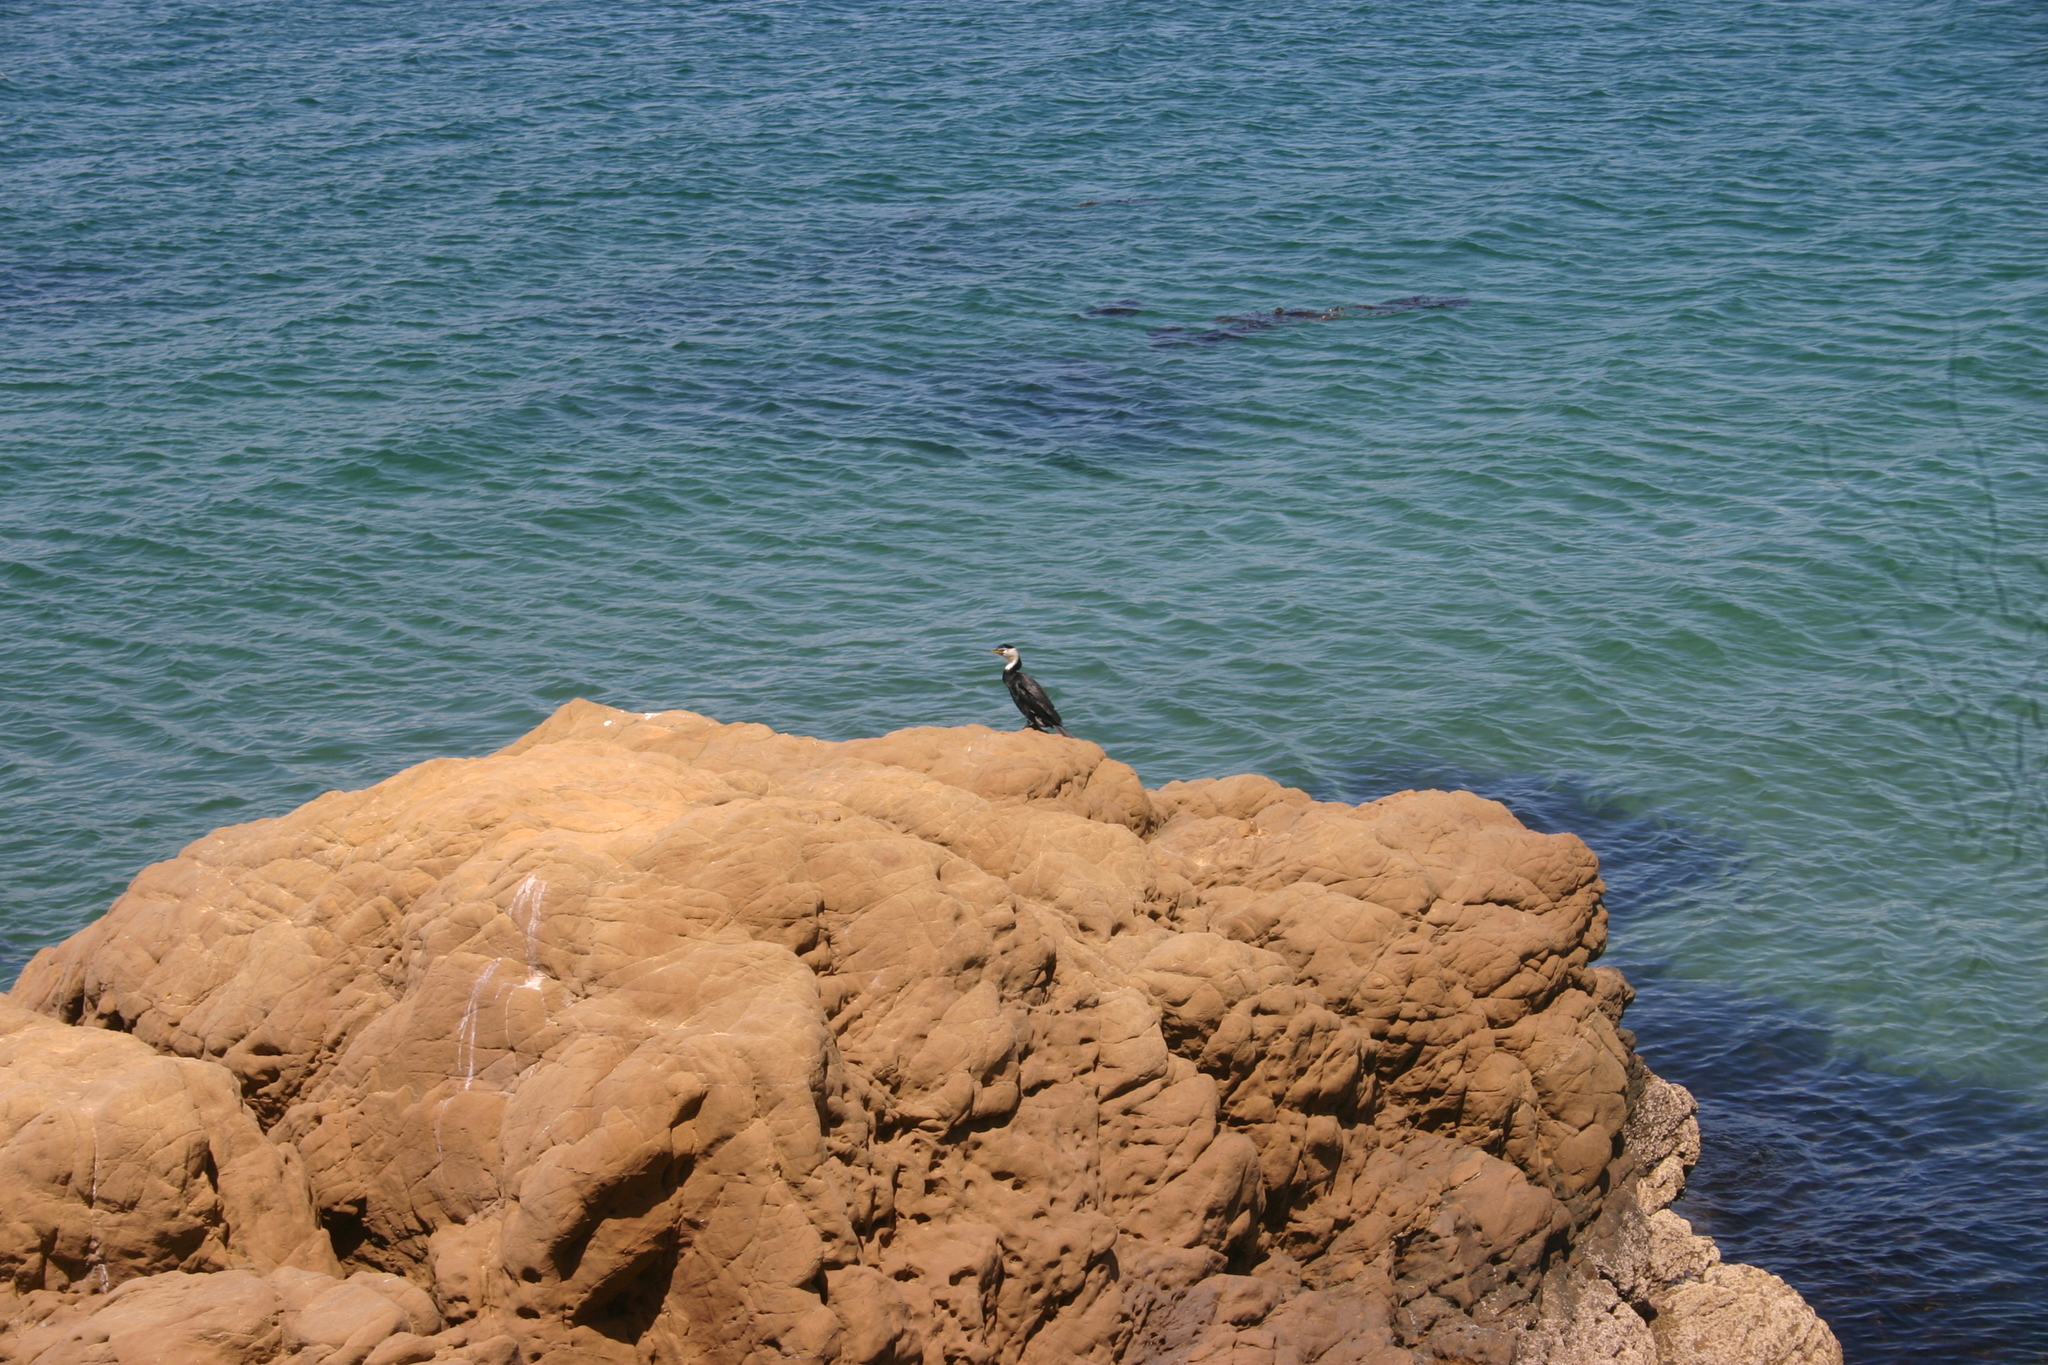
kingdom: Animalia
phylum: Chordata
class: Aves
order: Suliformes
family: Phalacrocoracidae
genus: Microcarbo
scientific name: Microcarbo melanoleucos
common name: Little pied cormorant
